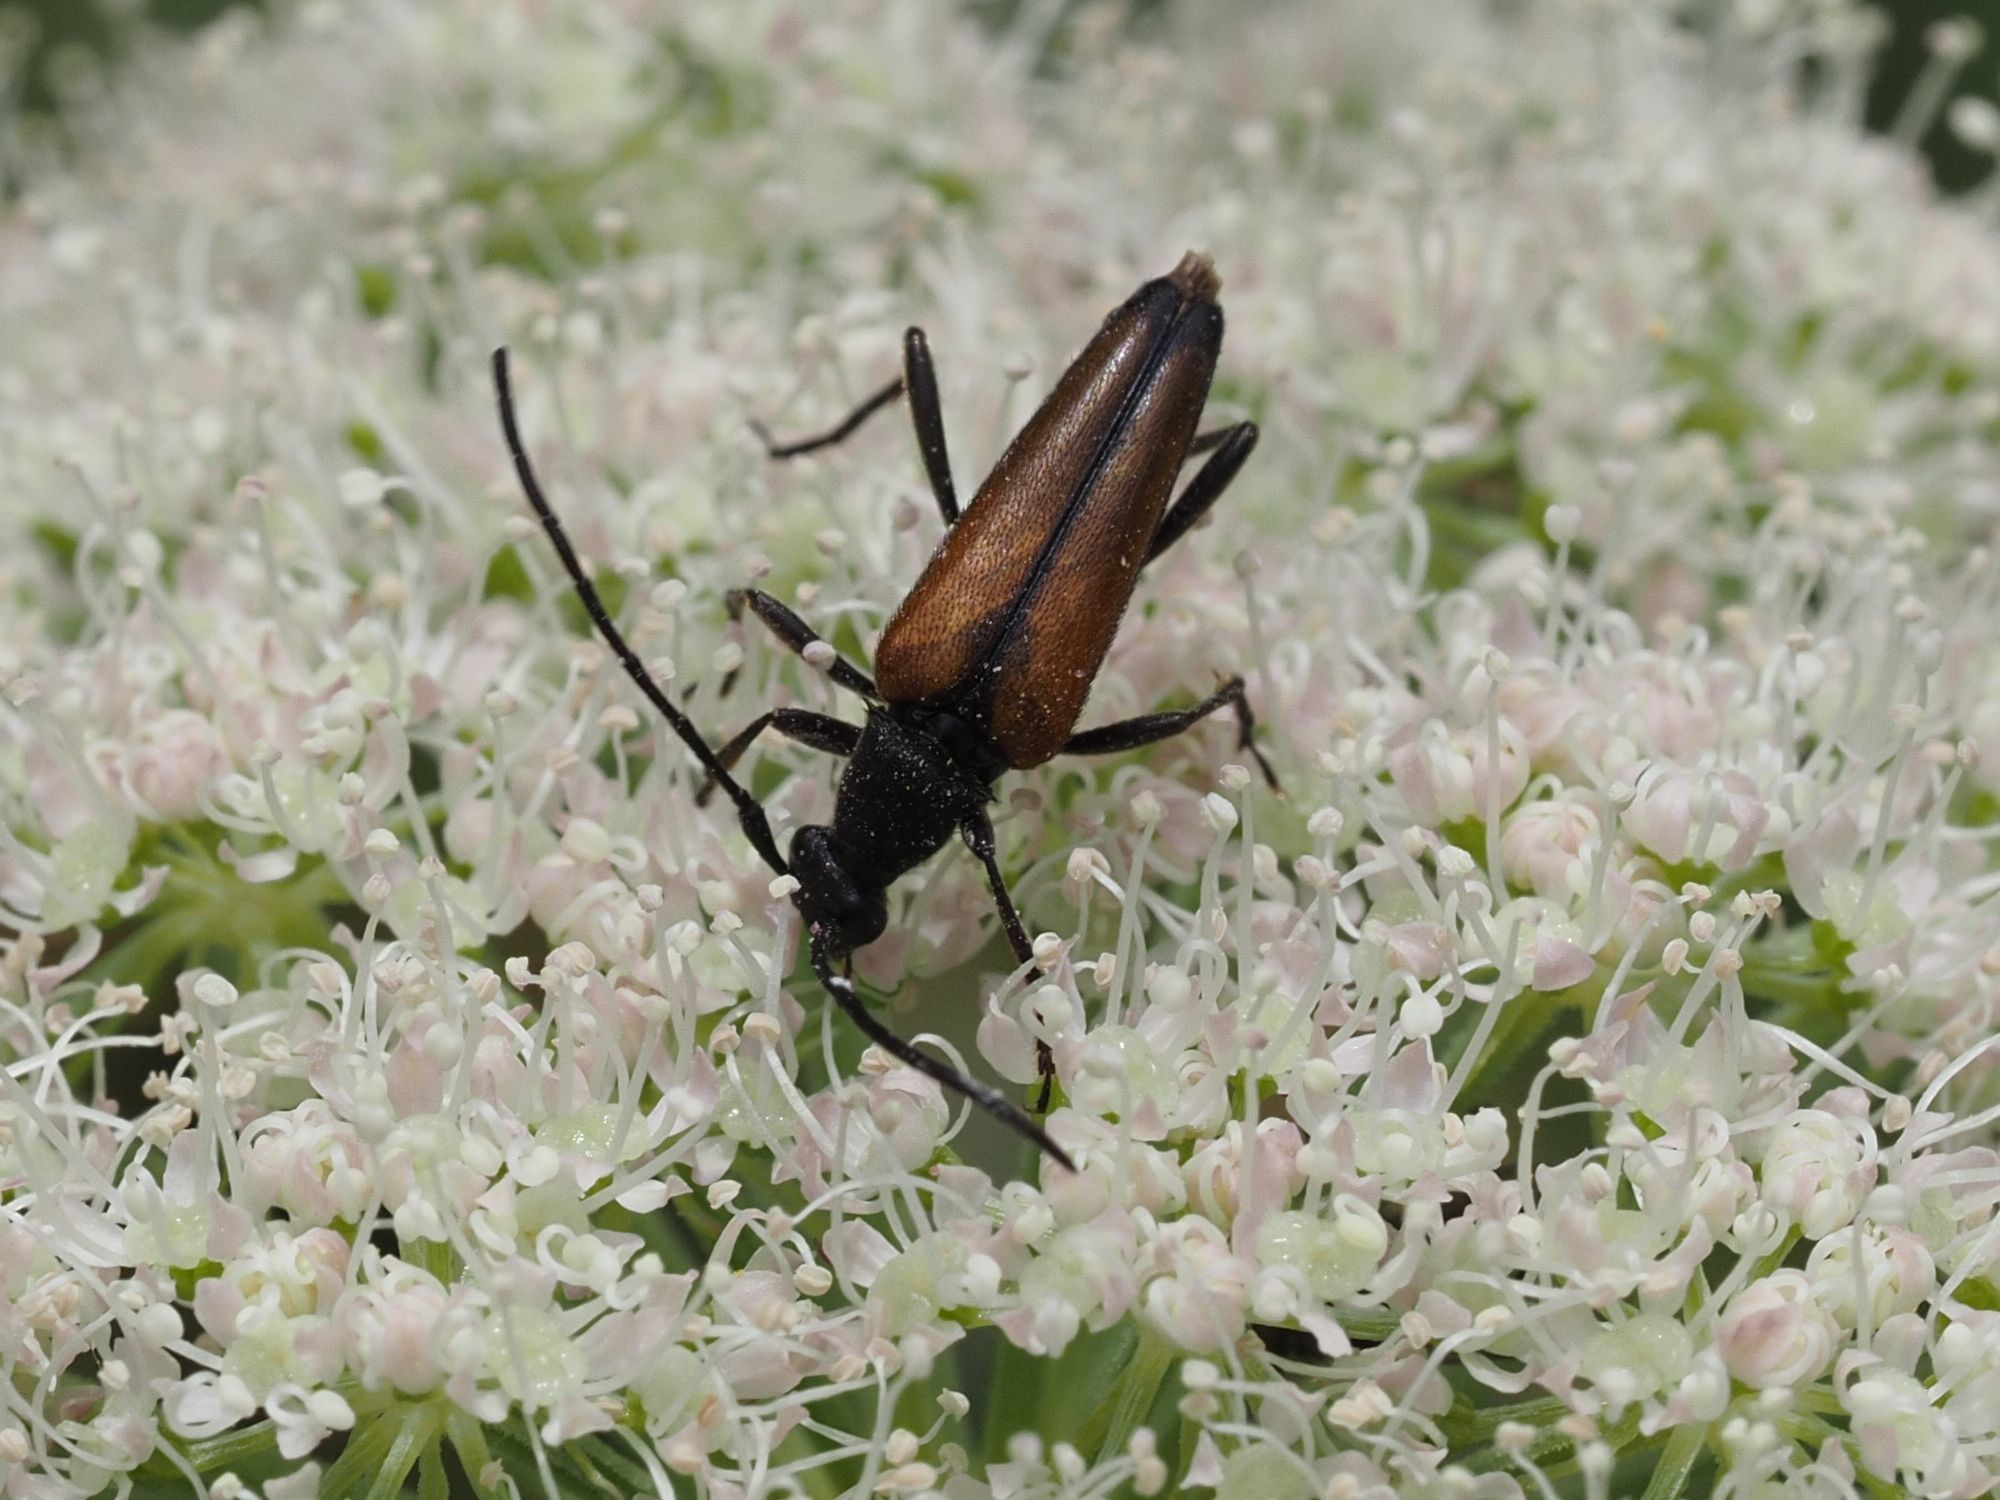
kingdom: Animalia
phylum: Arthropoda
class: Insecta
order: Coleoptera
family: Cerambycidae
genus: Stenurella
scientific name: Stenurella melanura
